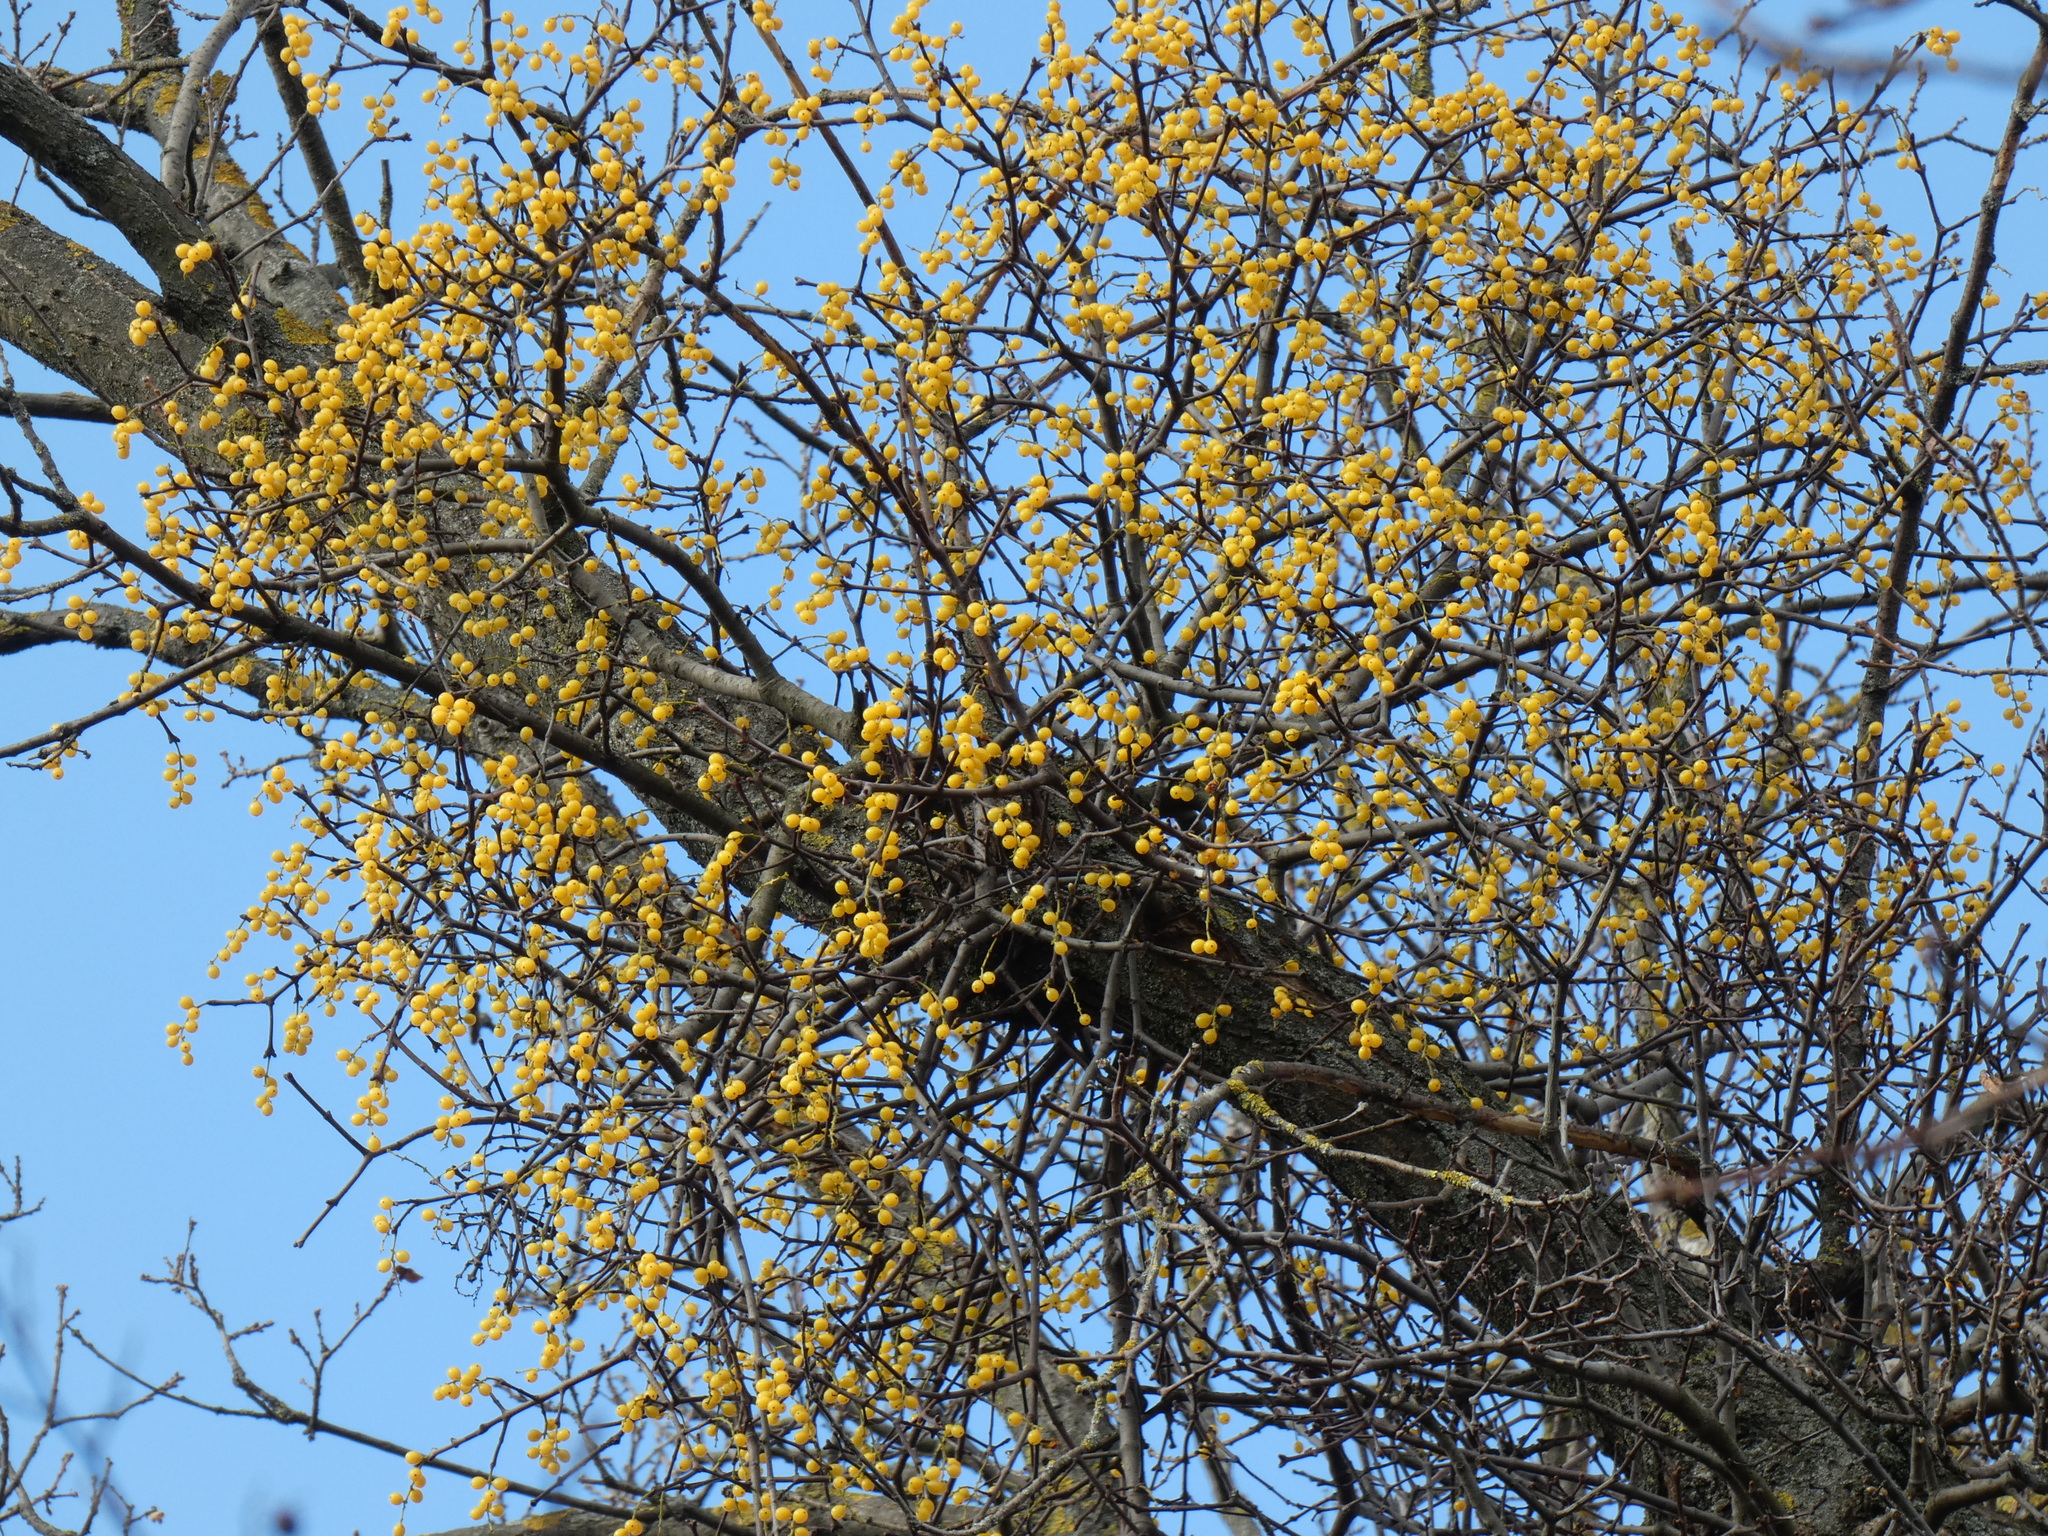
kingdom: Plantae
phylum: Tracheophyta
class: Magnoliopsida
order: Santalales
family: Loranthaceae
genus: Loranthus
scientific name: Loranthus europaeus
